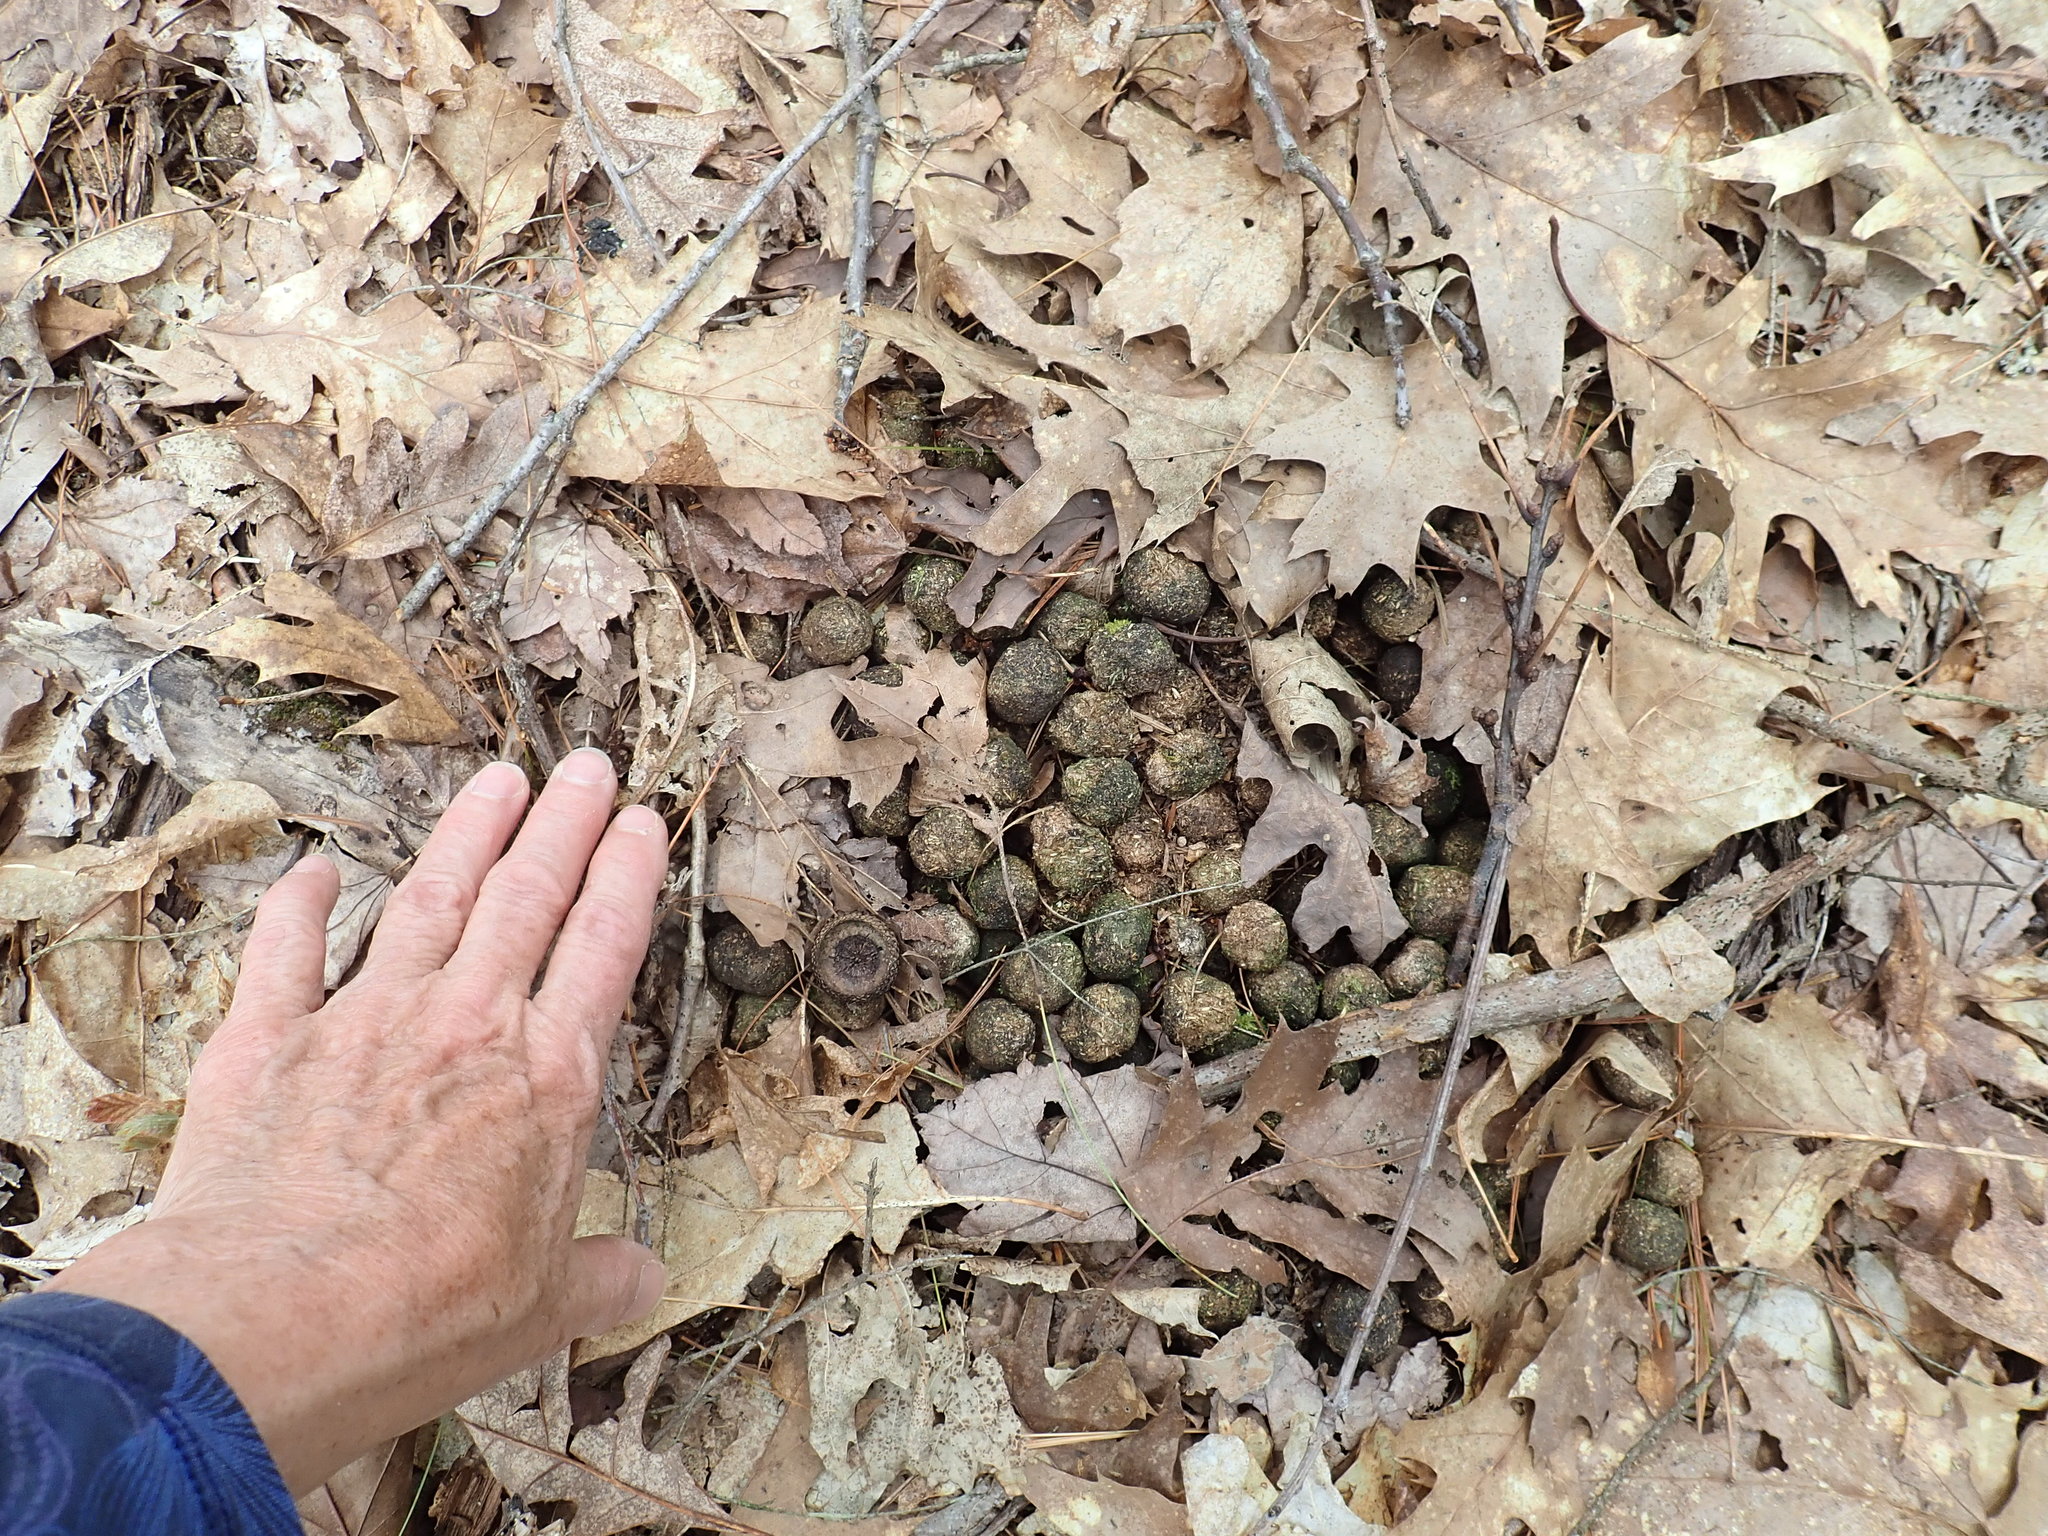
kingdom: Animalia
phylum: Chordata
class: Mammalia
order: Artiodactyla
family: Cervidae
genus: Alces
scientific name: Alces alces
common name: Moose
